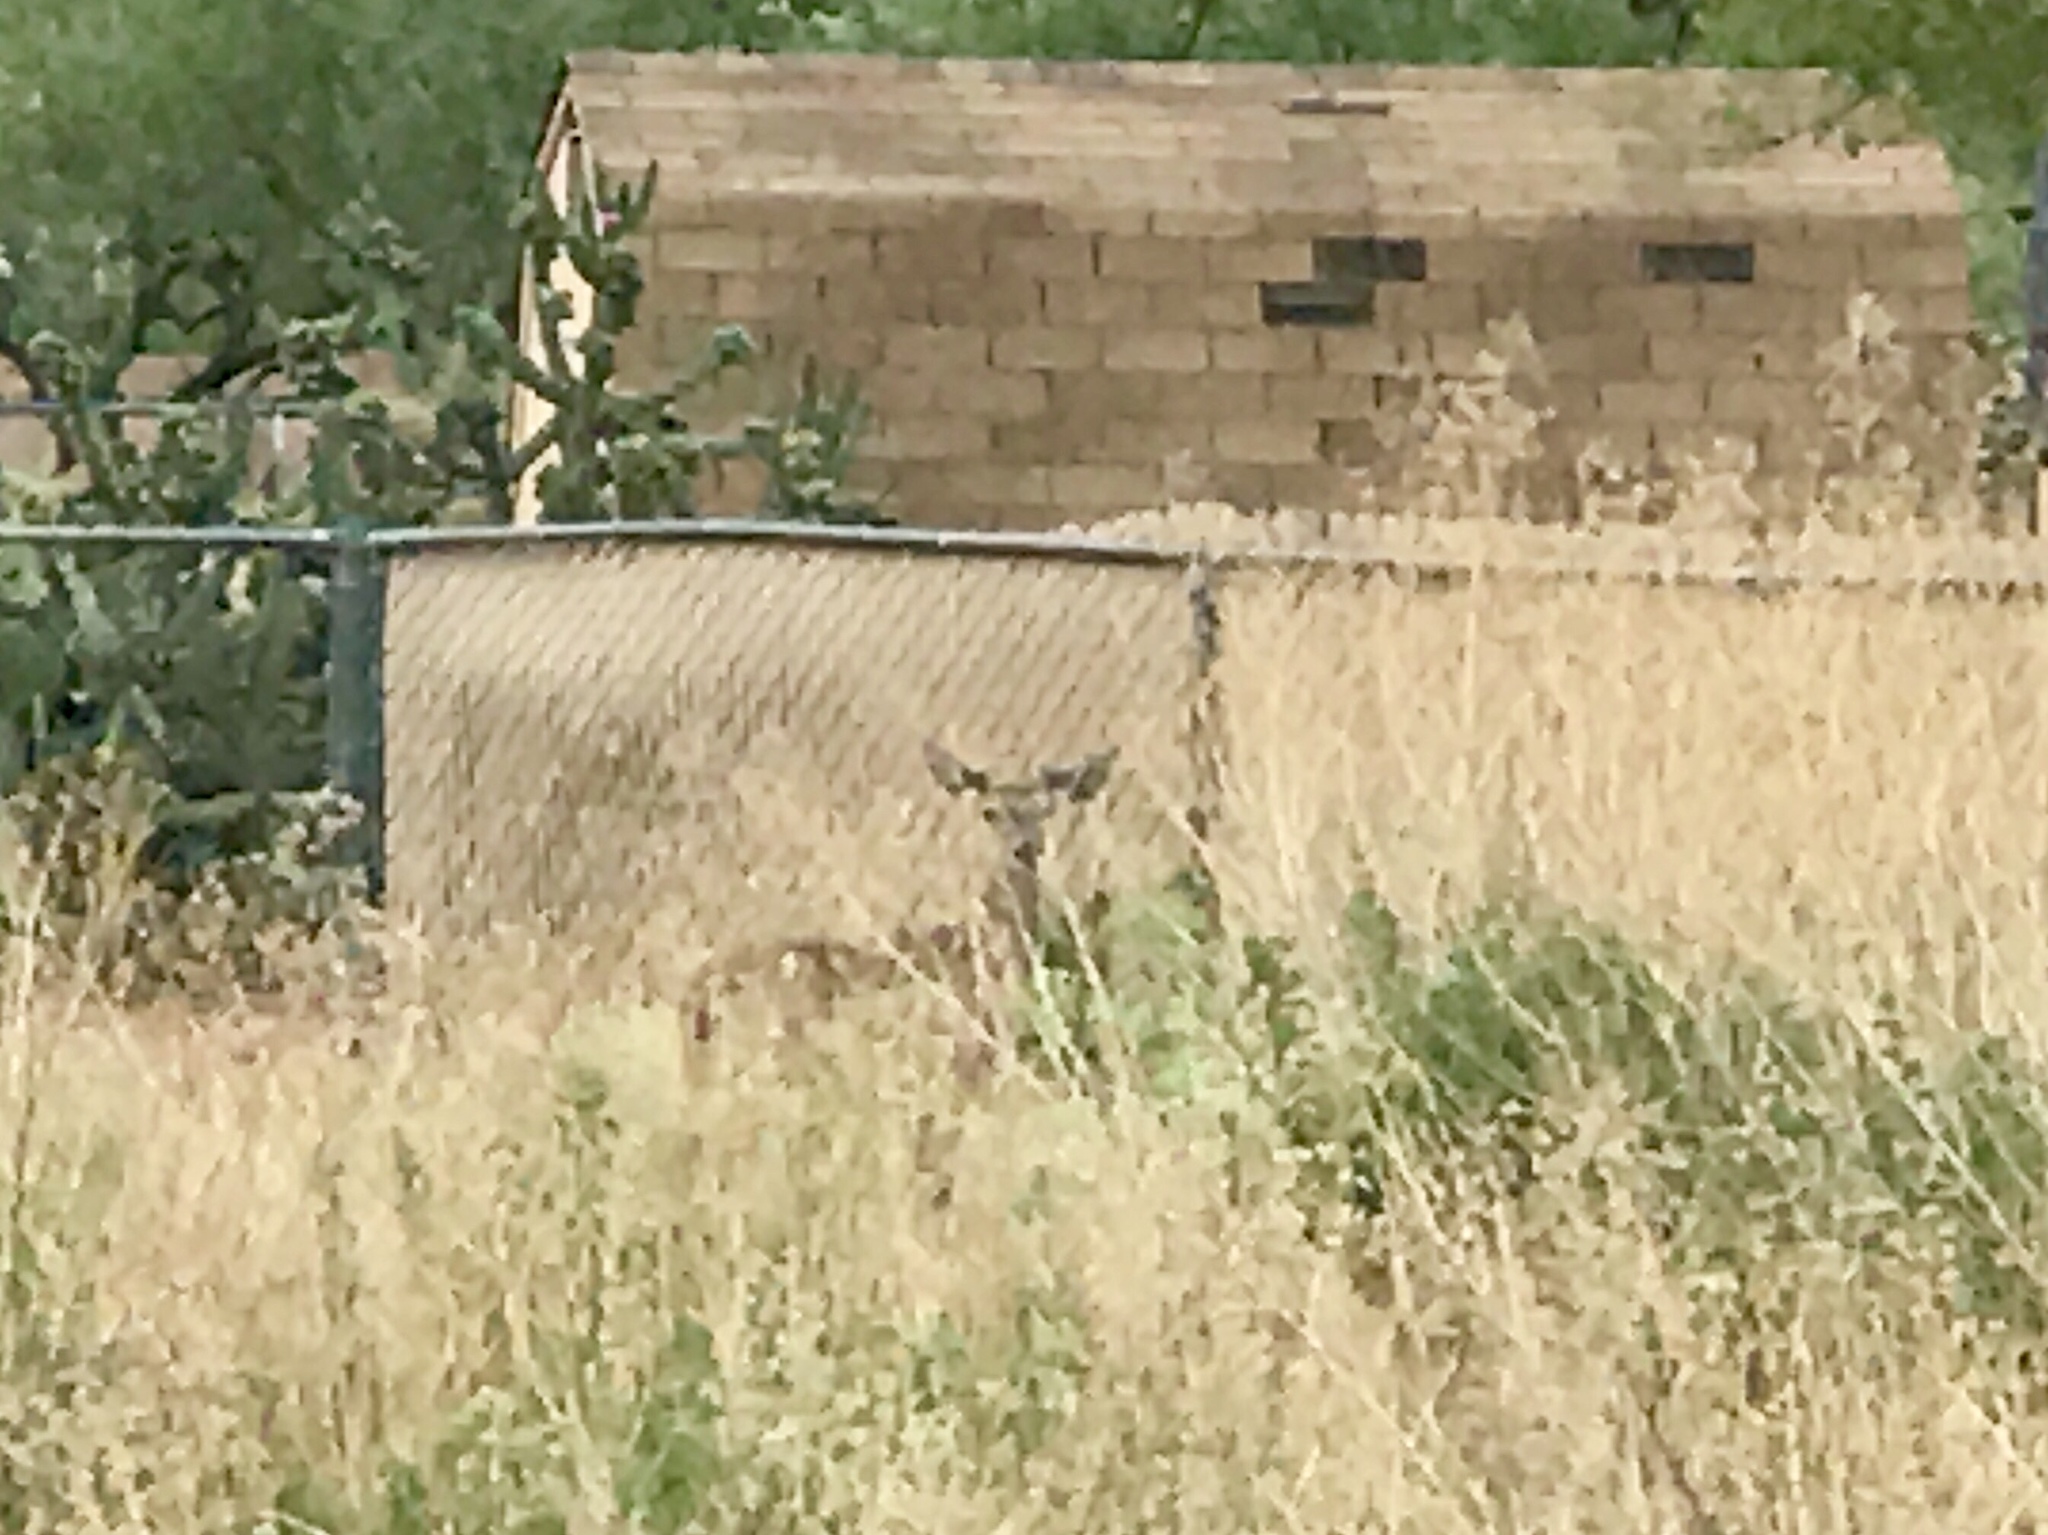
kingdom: Animalia
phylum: Chordata
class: Mammalia
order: Artiodactyla
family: Cervidae
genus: Odocoileus
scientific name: Odocoileus virginianus
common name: White-tailed deer
